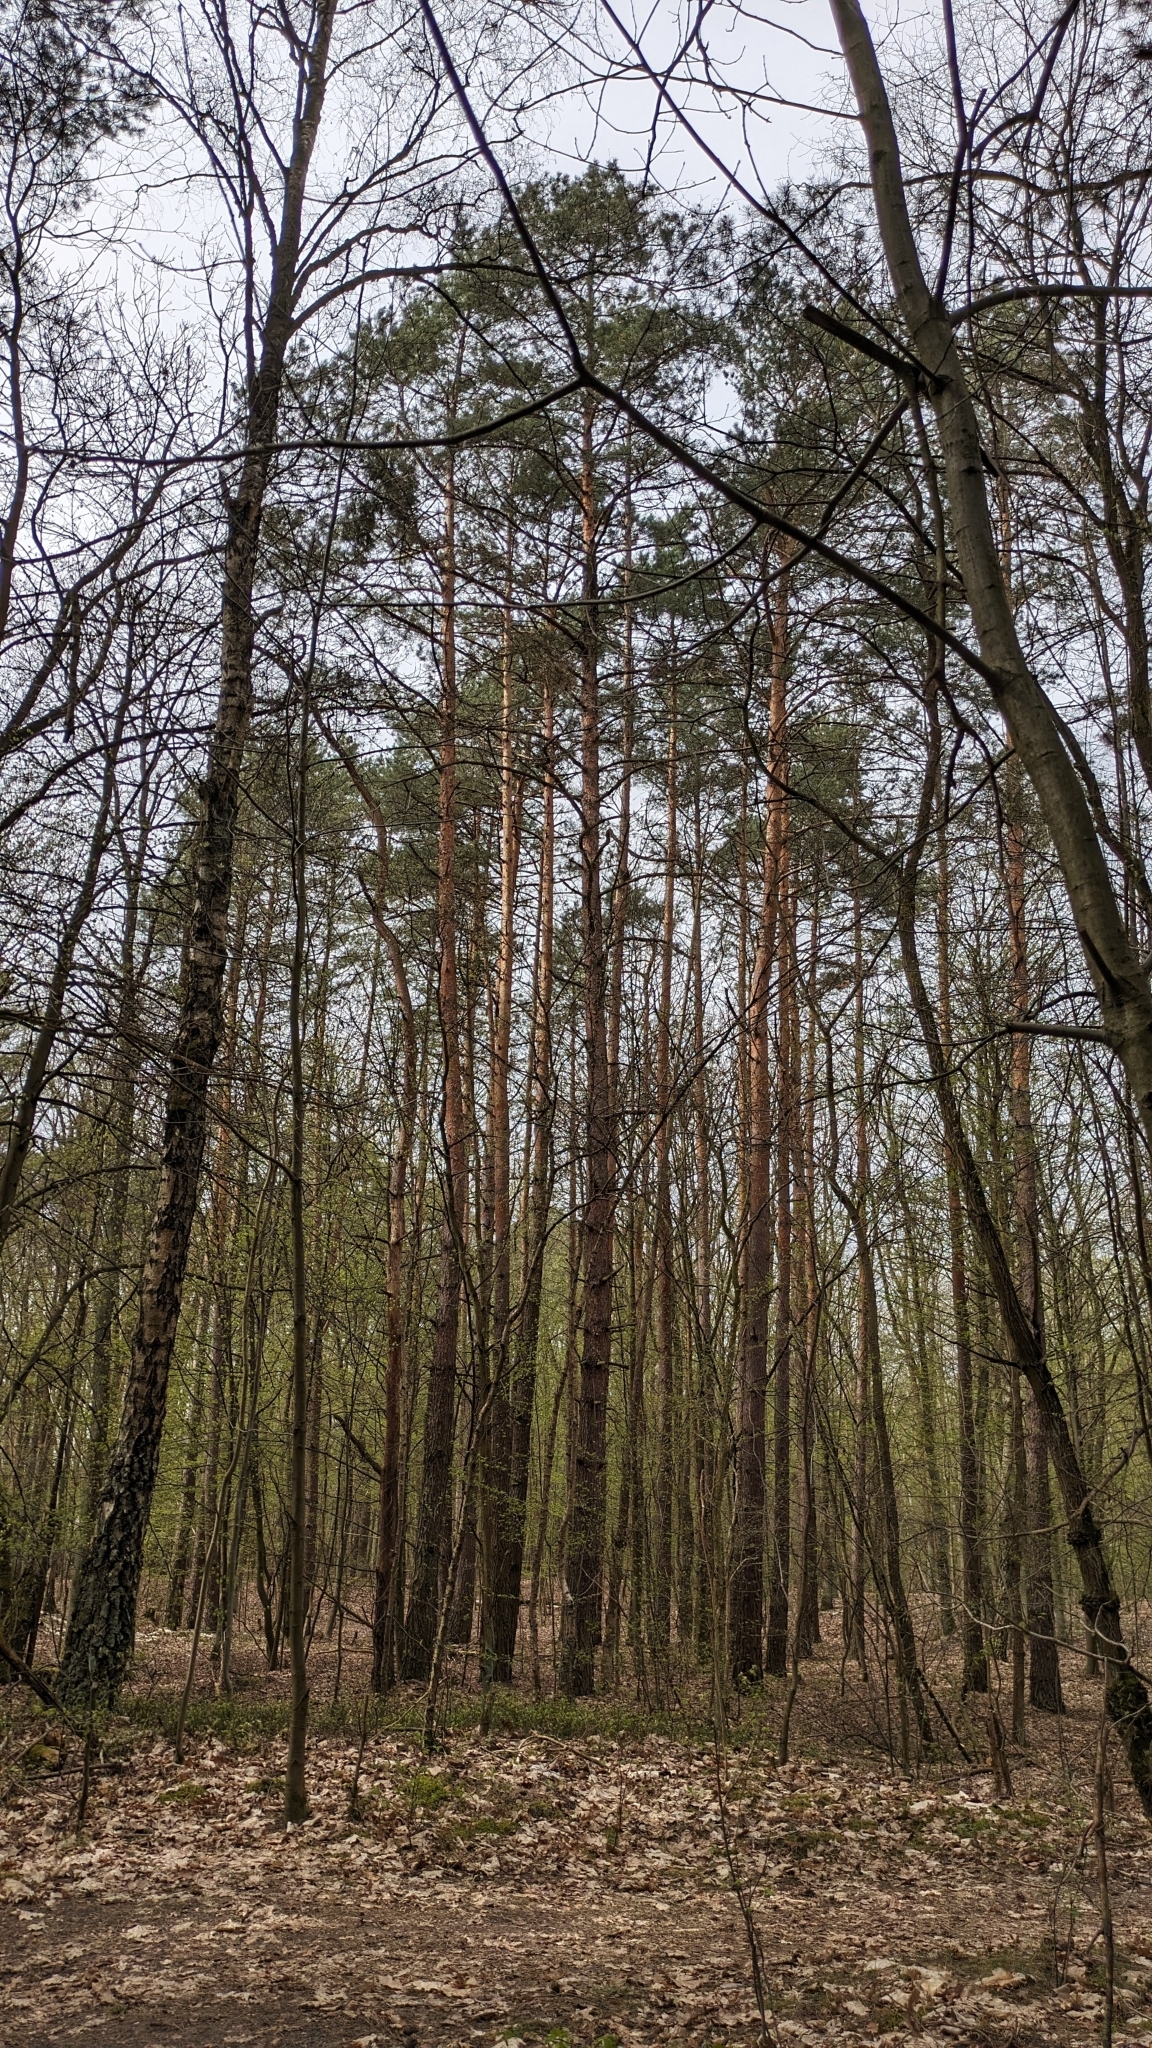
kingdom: Animalia
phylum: Chordata
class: Aves
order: Passeriformes
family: Fringillidae
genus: Coccothraustes
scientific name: Coccothraustes coccothraustes
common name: Hawfinch
